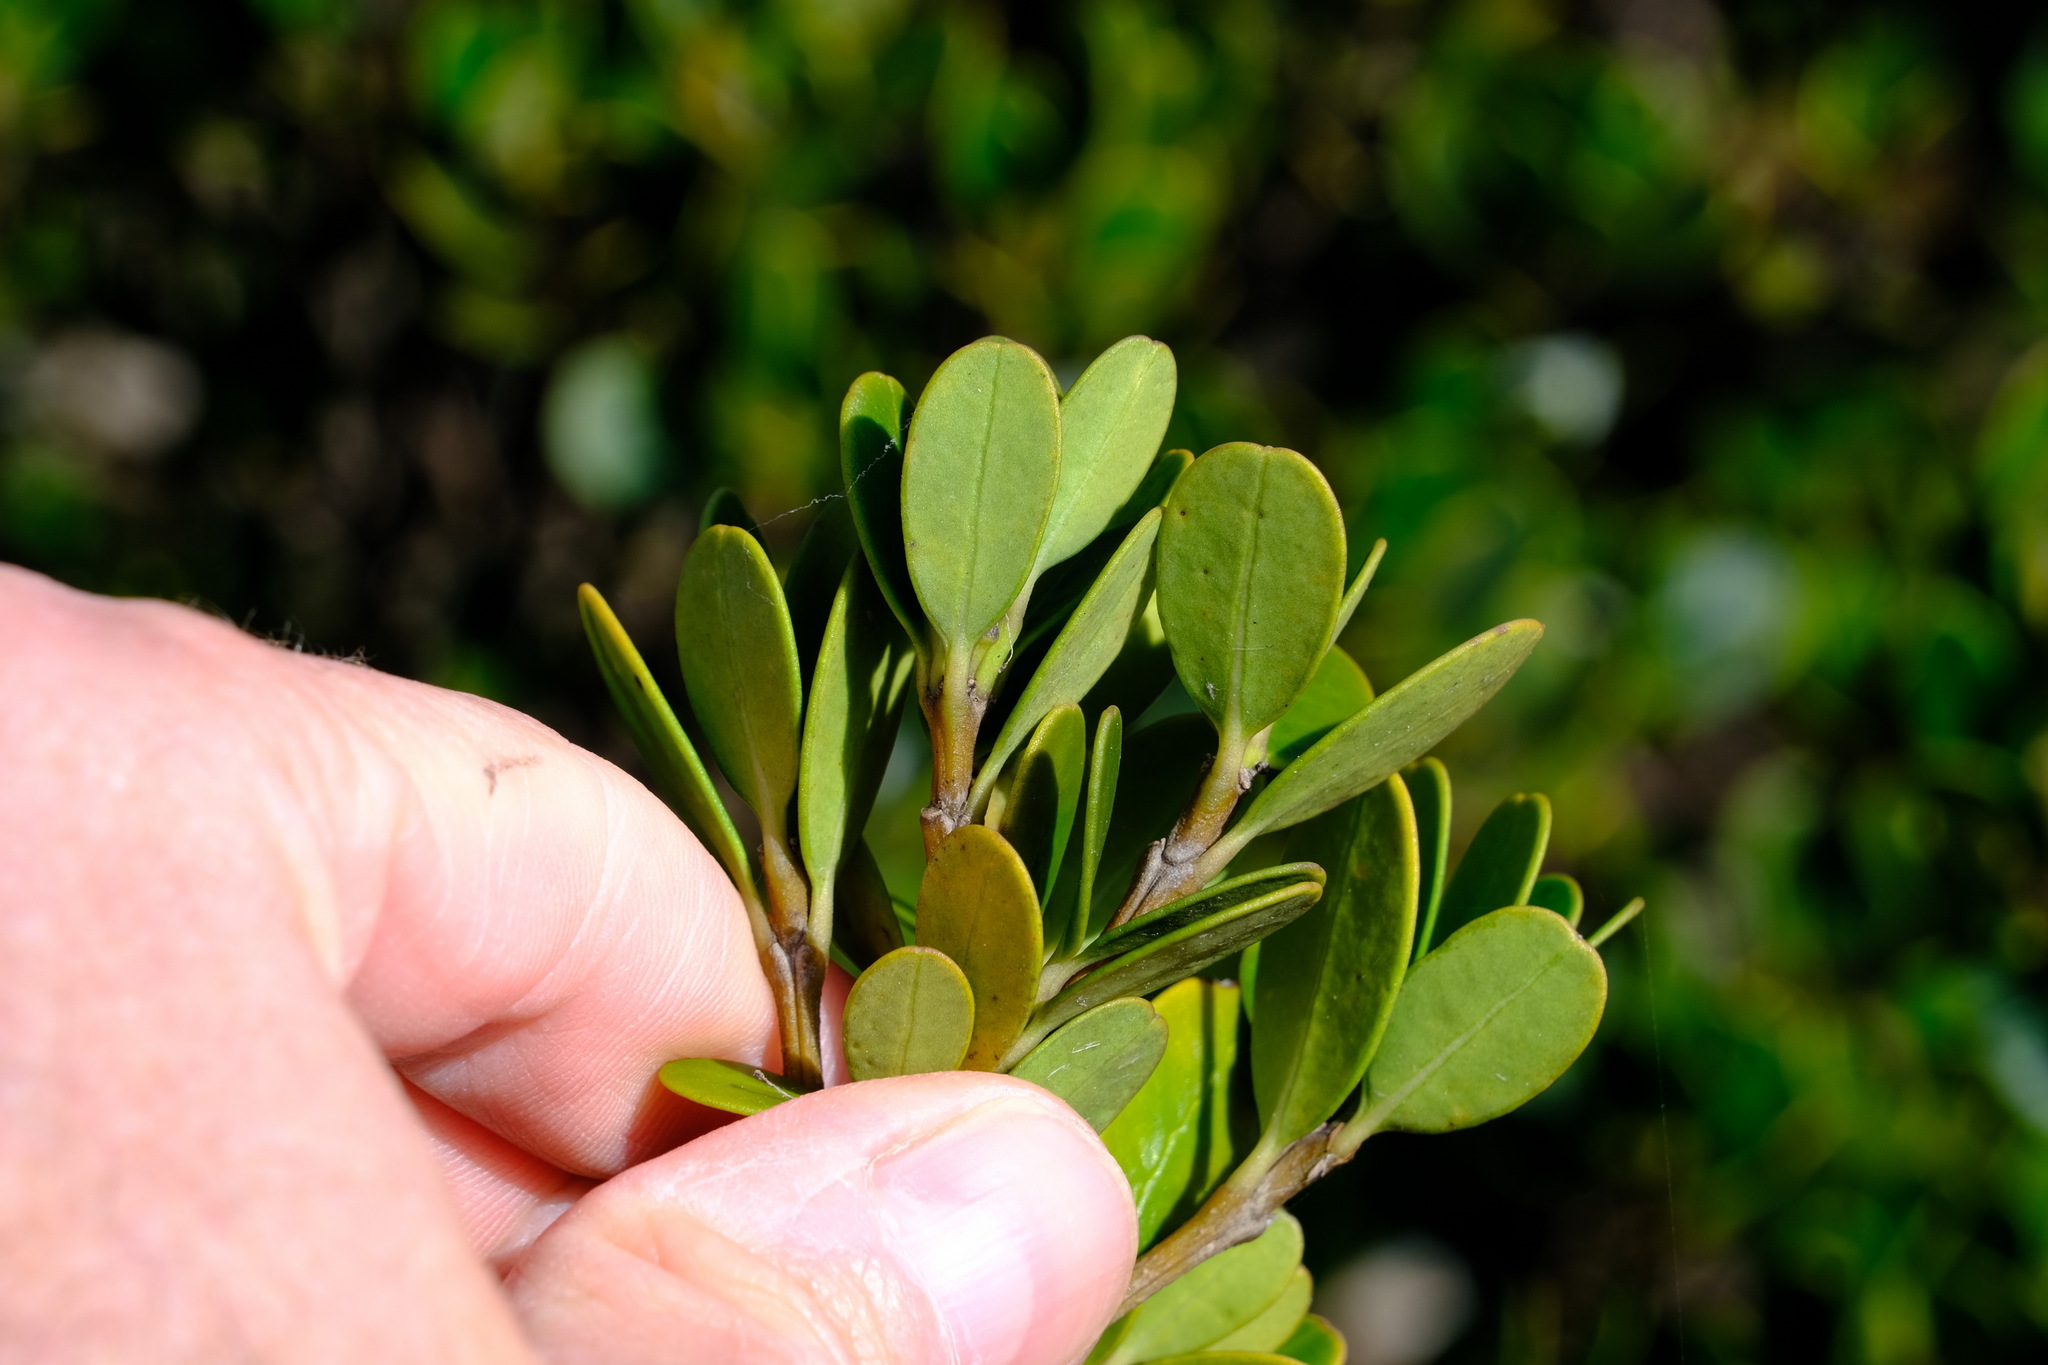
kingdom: Plantae
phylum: Tracheophyta
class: Magnoliopsida
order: Gentianales
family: Apocynaceae
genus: Alyxia
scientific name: Alyxia buxifolia
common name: Dysentery-bush
